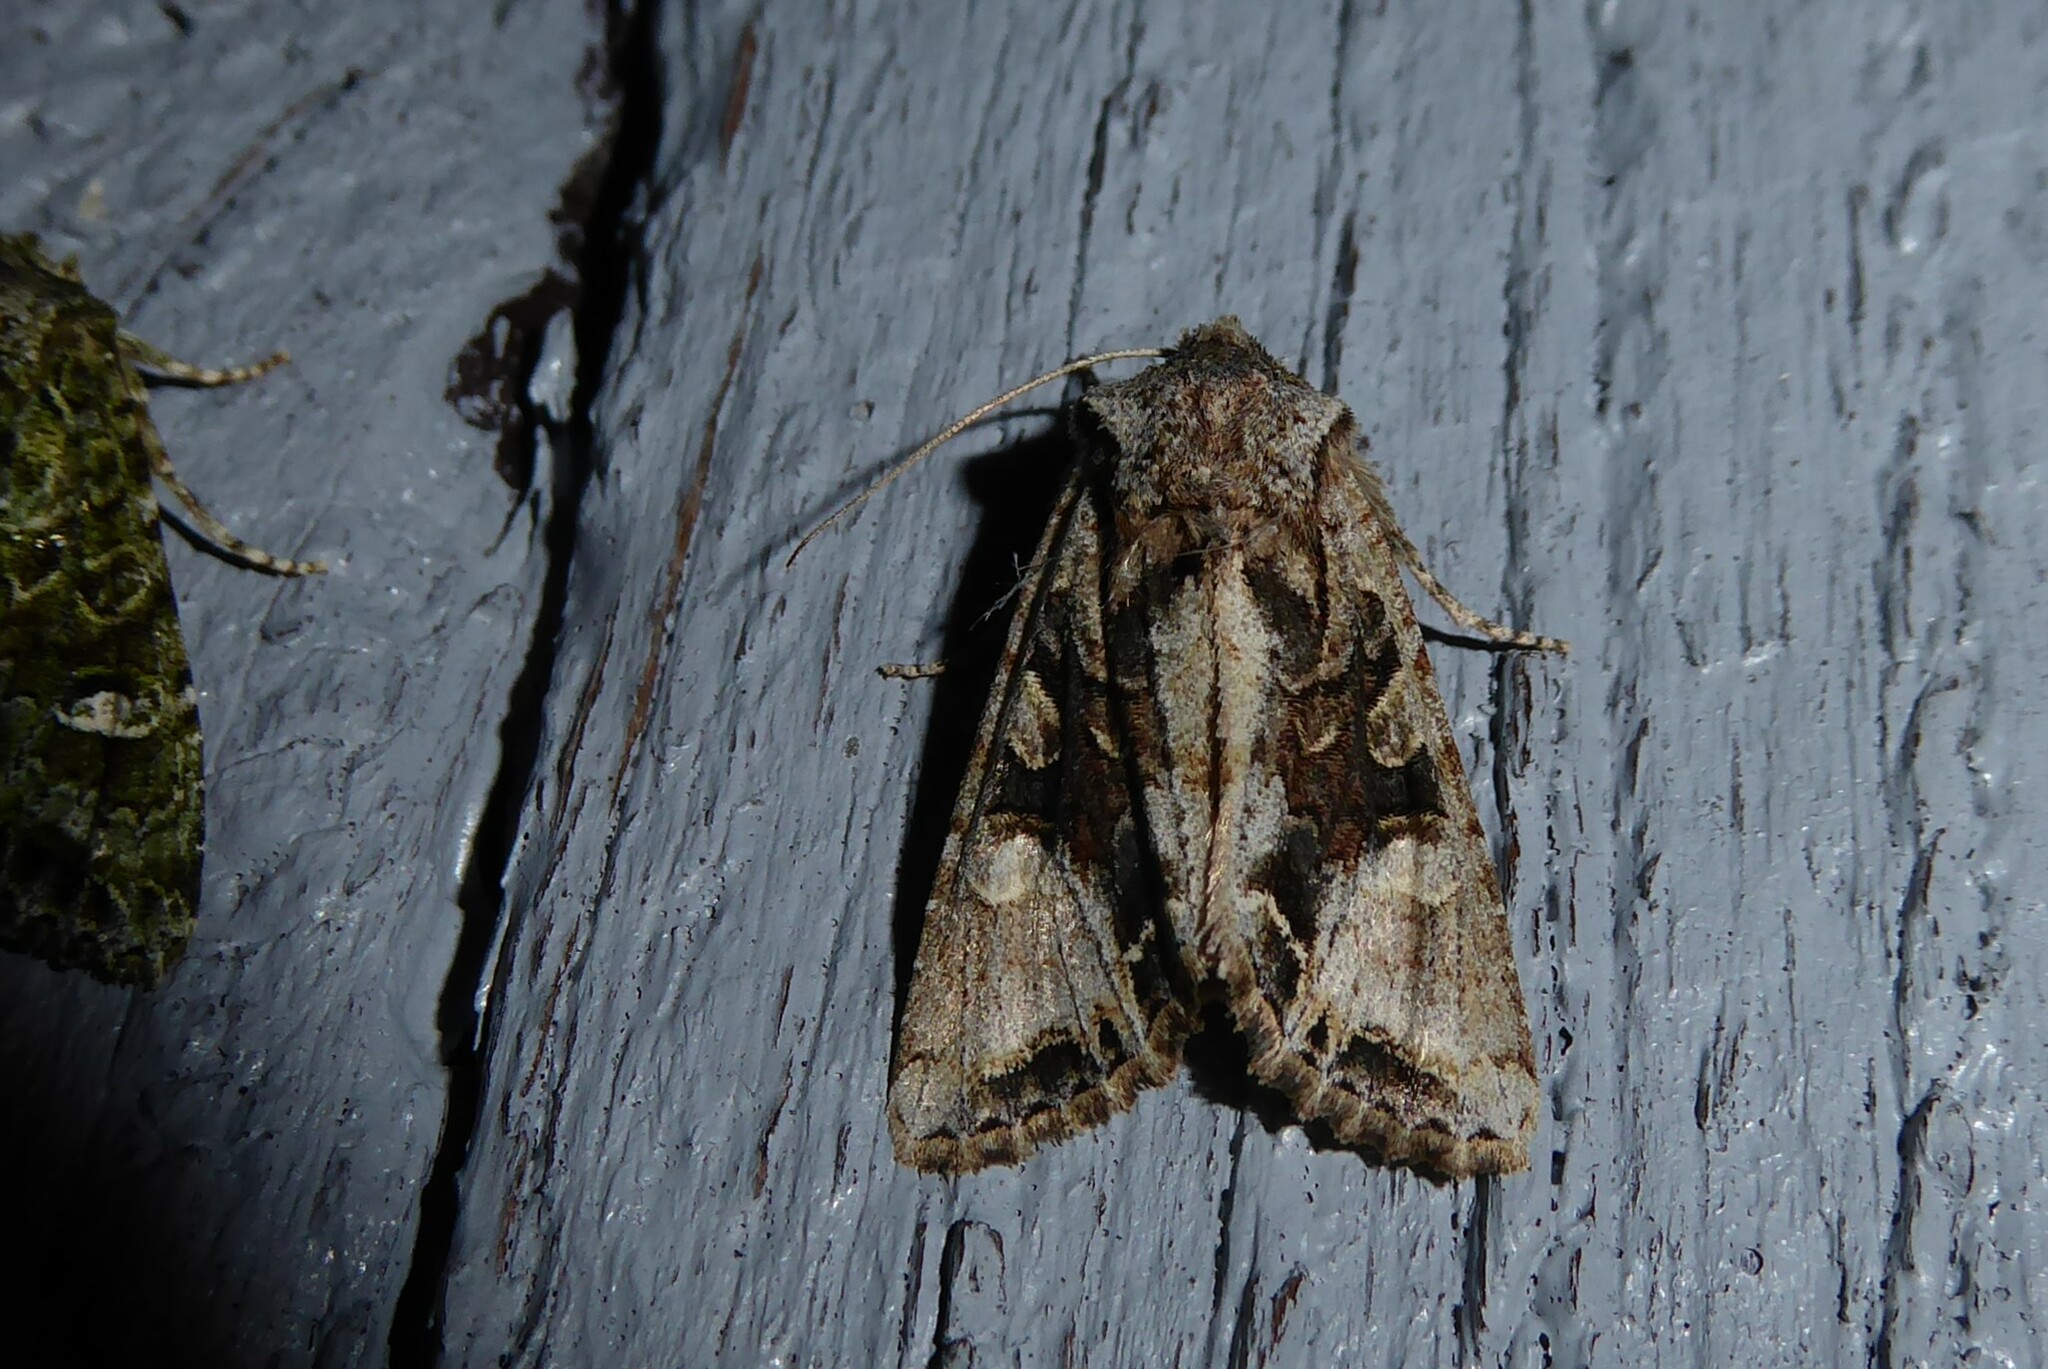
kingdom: Animalia
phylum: Arthropoda
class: Insecta
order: Lepidoptera
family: Noctuidae
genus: Ichneutica
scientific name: Ichneutica
